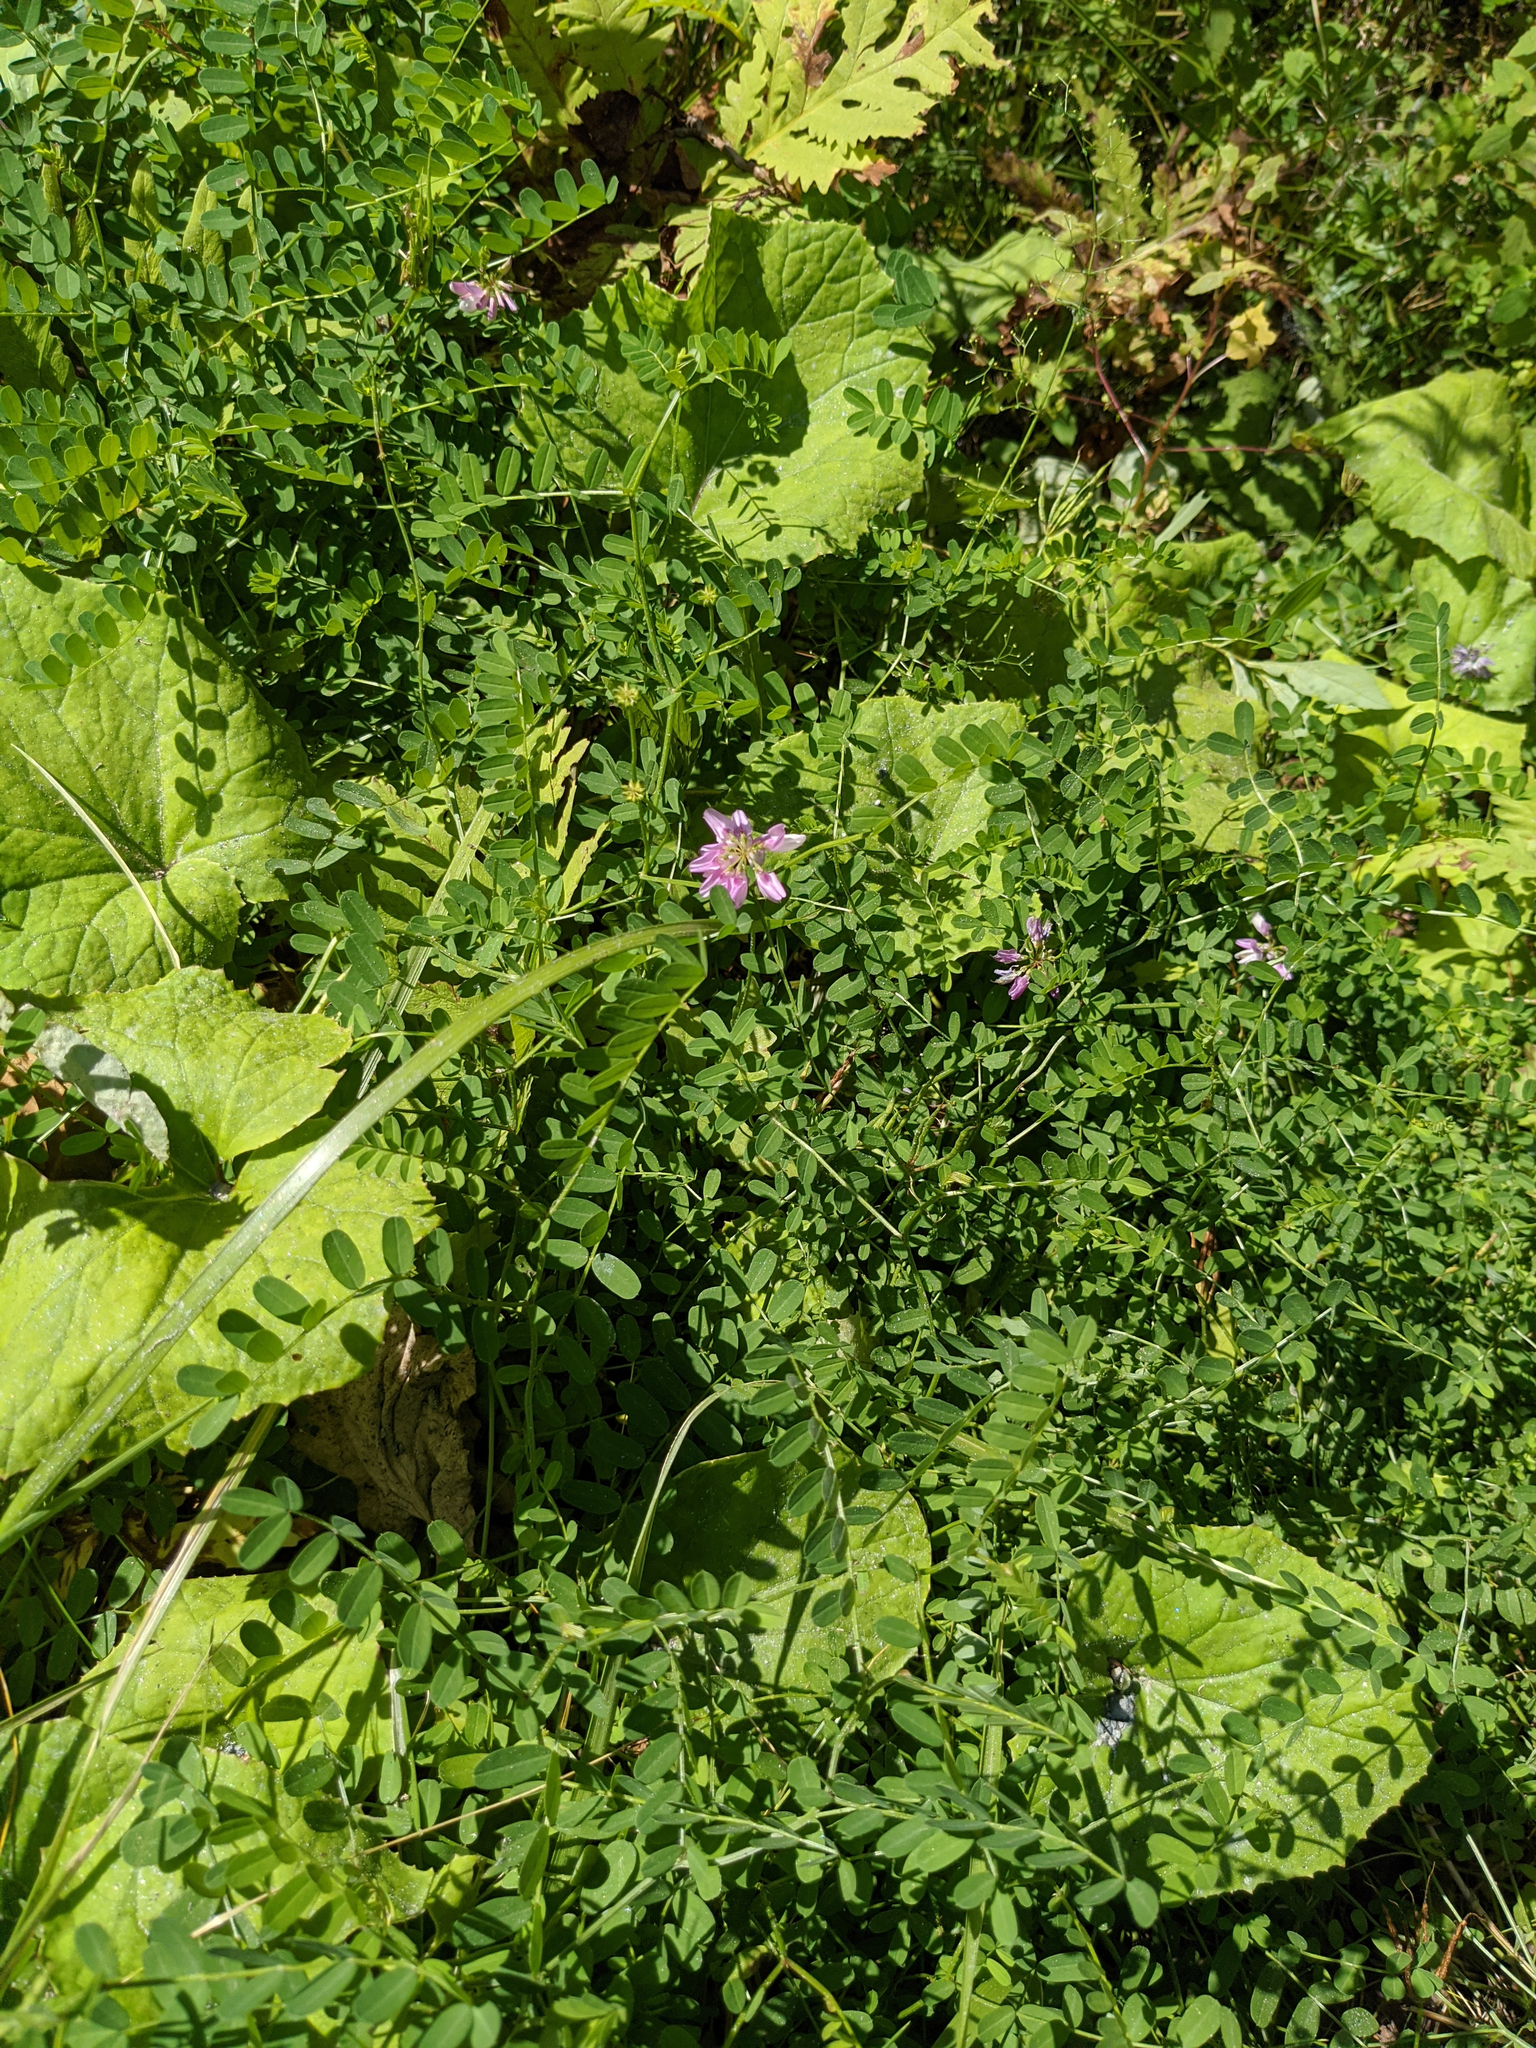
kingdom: Plantae
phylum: Tracheophyta
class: Magnoliopsida
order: Fabales
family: Fabaceae
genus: Coronilla
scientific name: Coronilla varia
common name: Crownvetch
